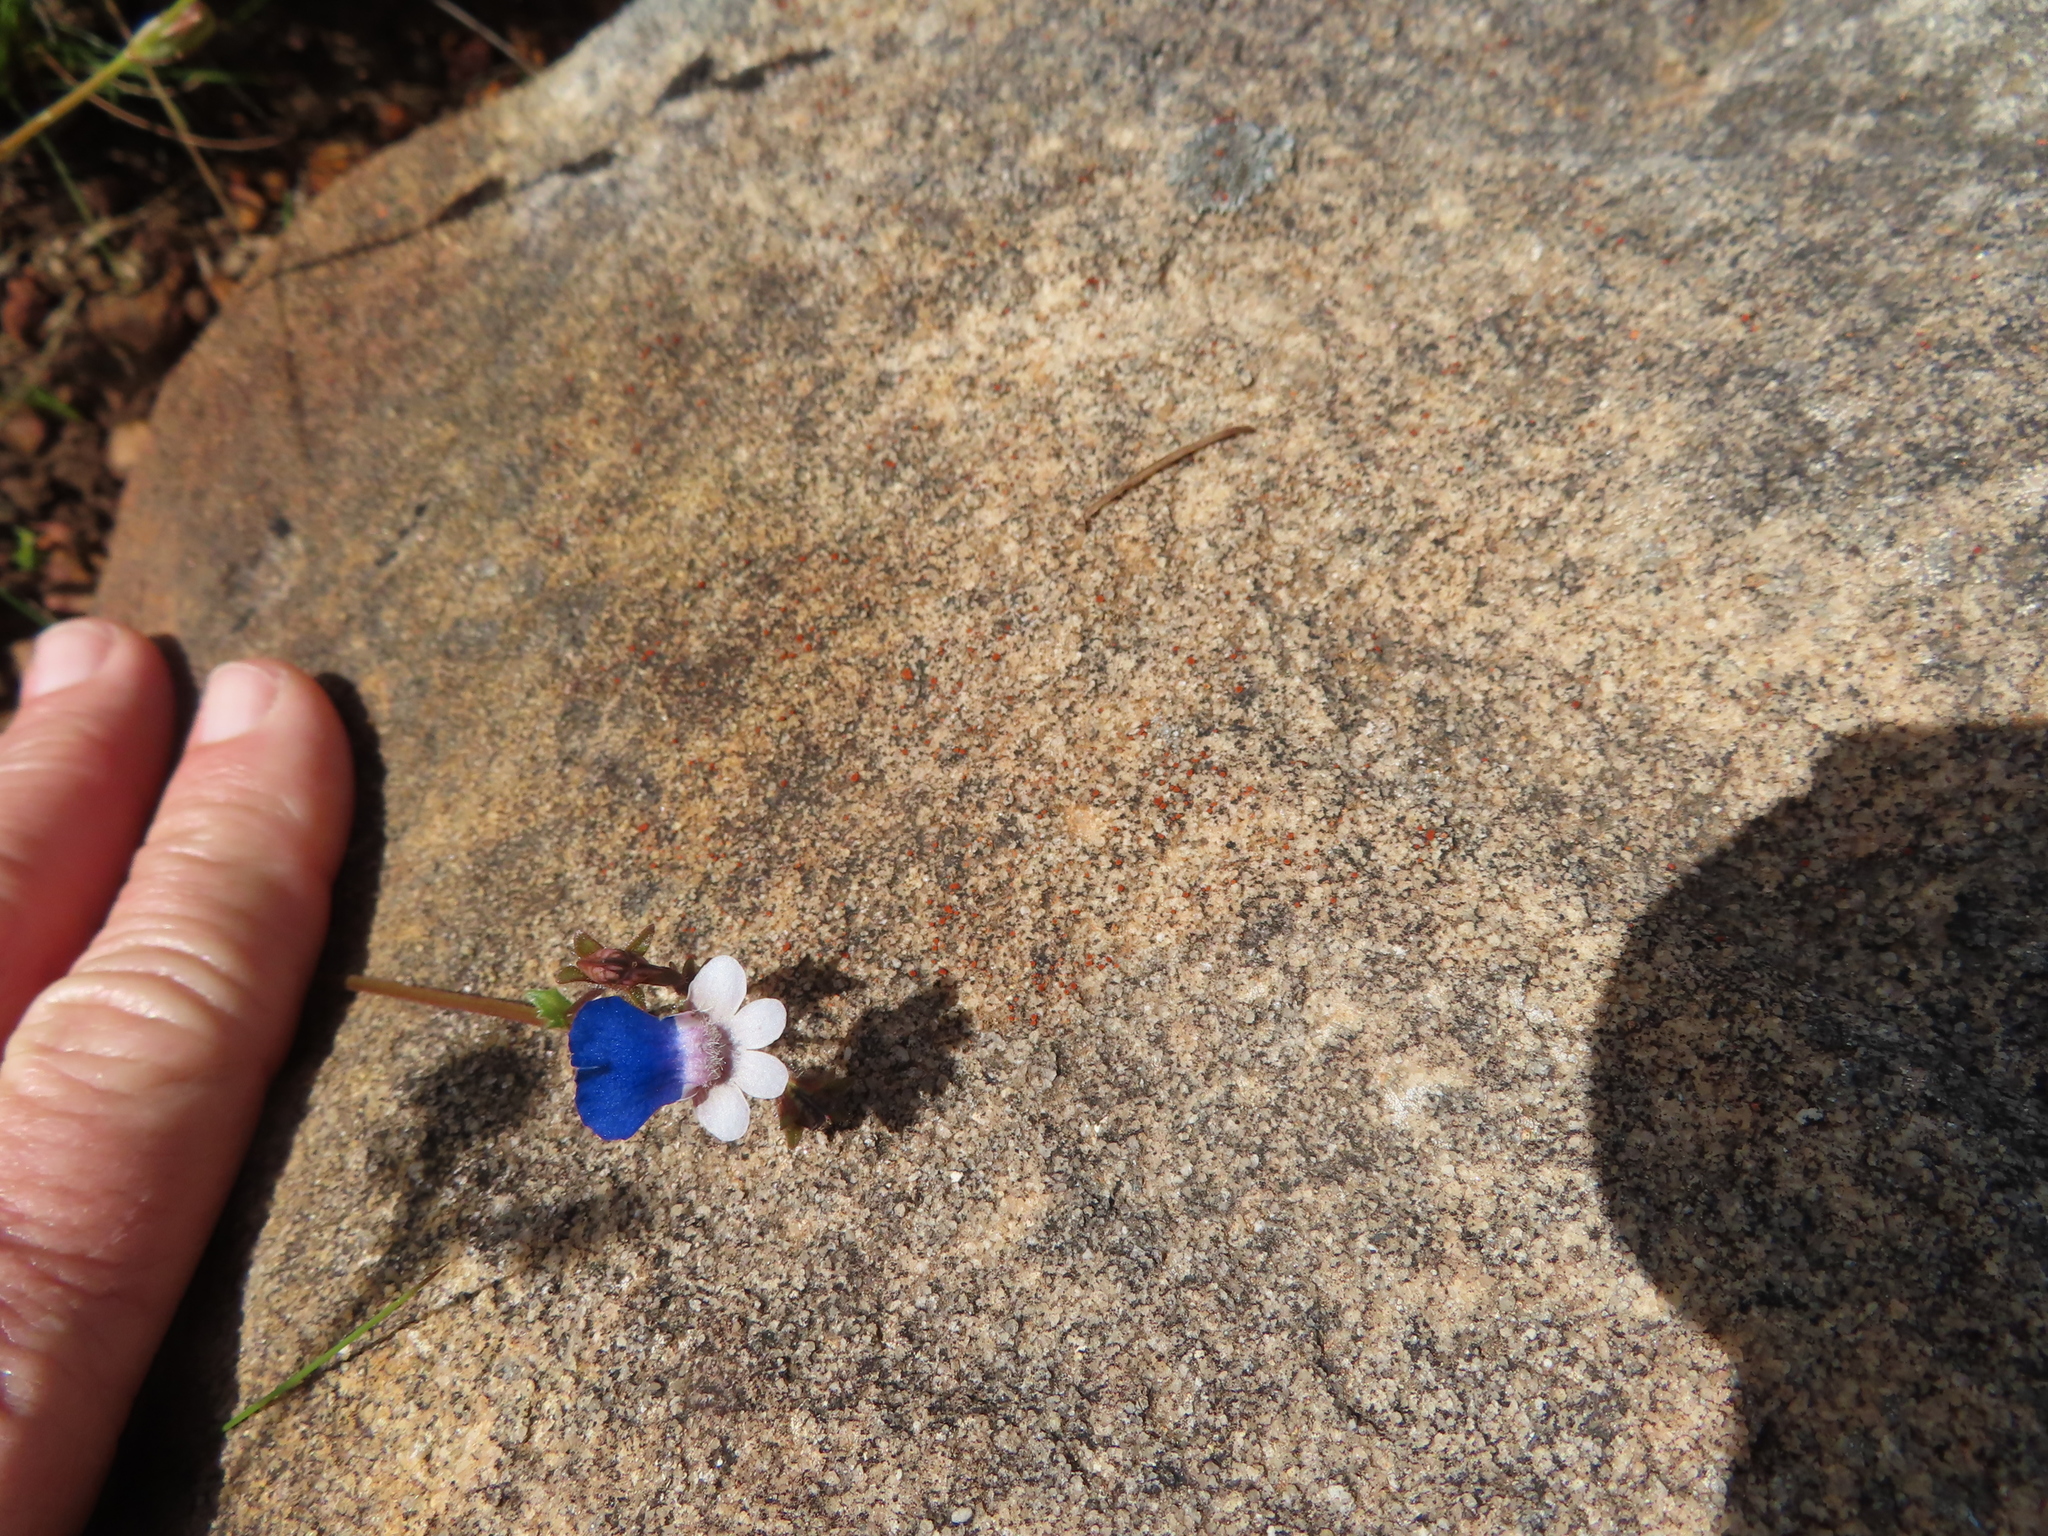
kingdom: Plantae
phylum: Tracheophyta
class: Magnoliopsida
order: Lamiales
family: Scrophulariaceae
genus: Nemesia
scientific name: Nemesia barbata
